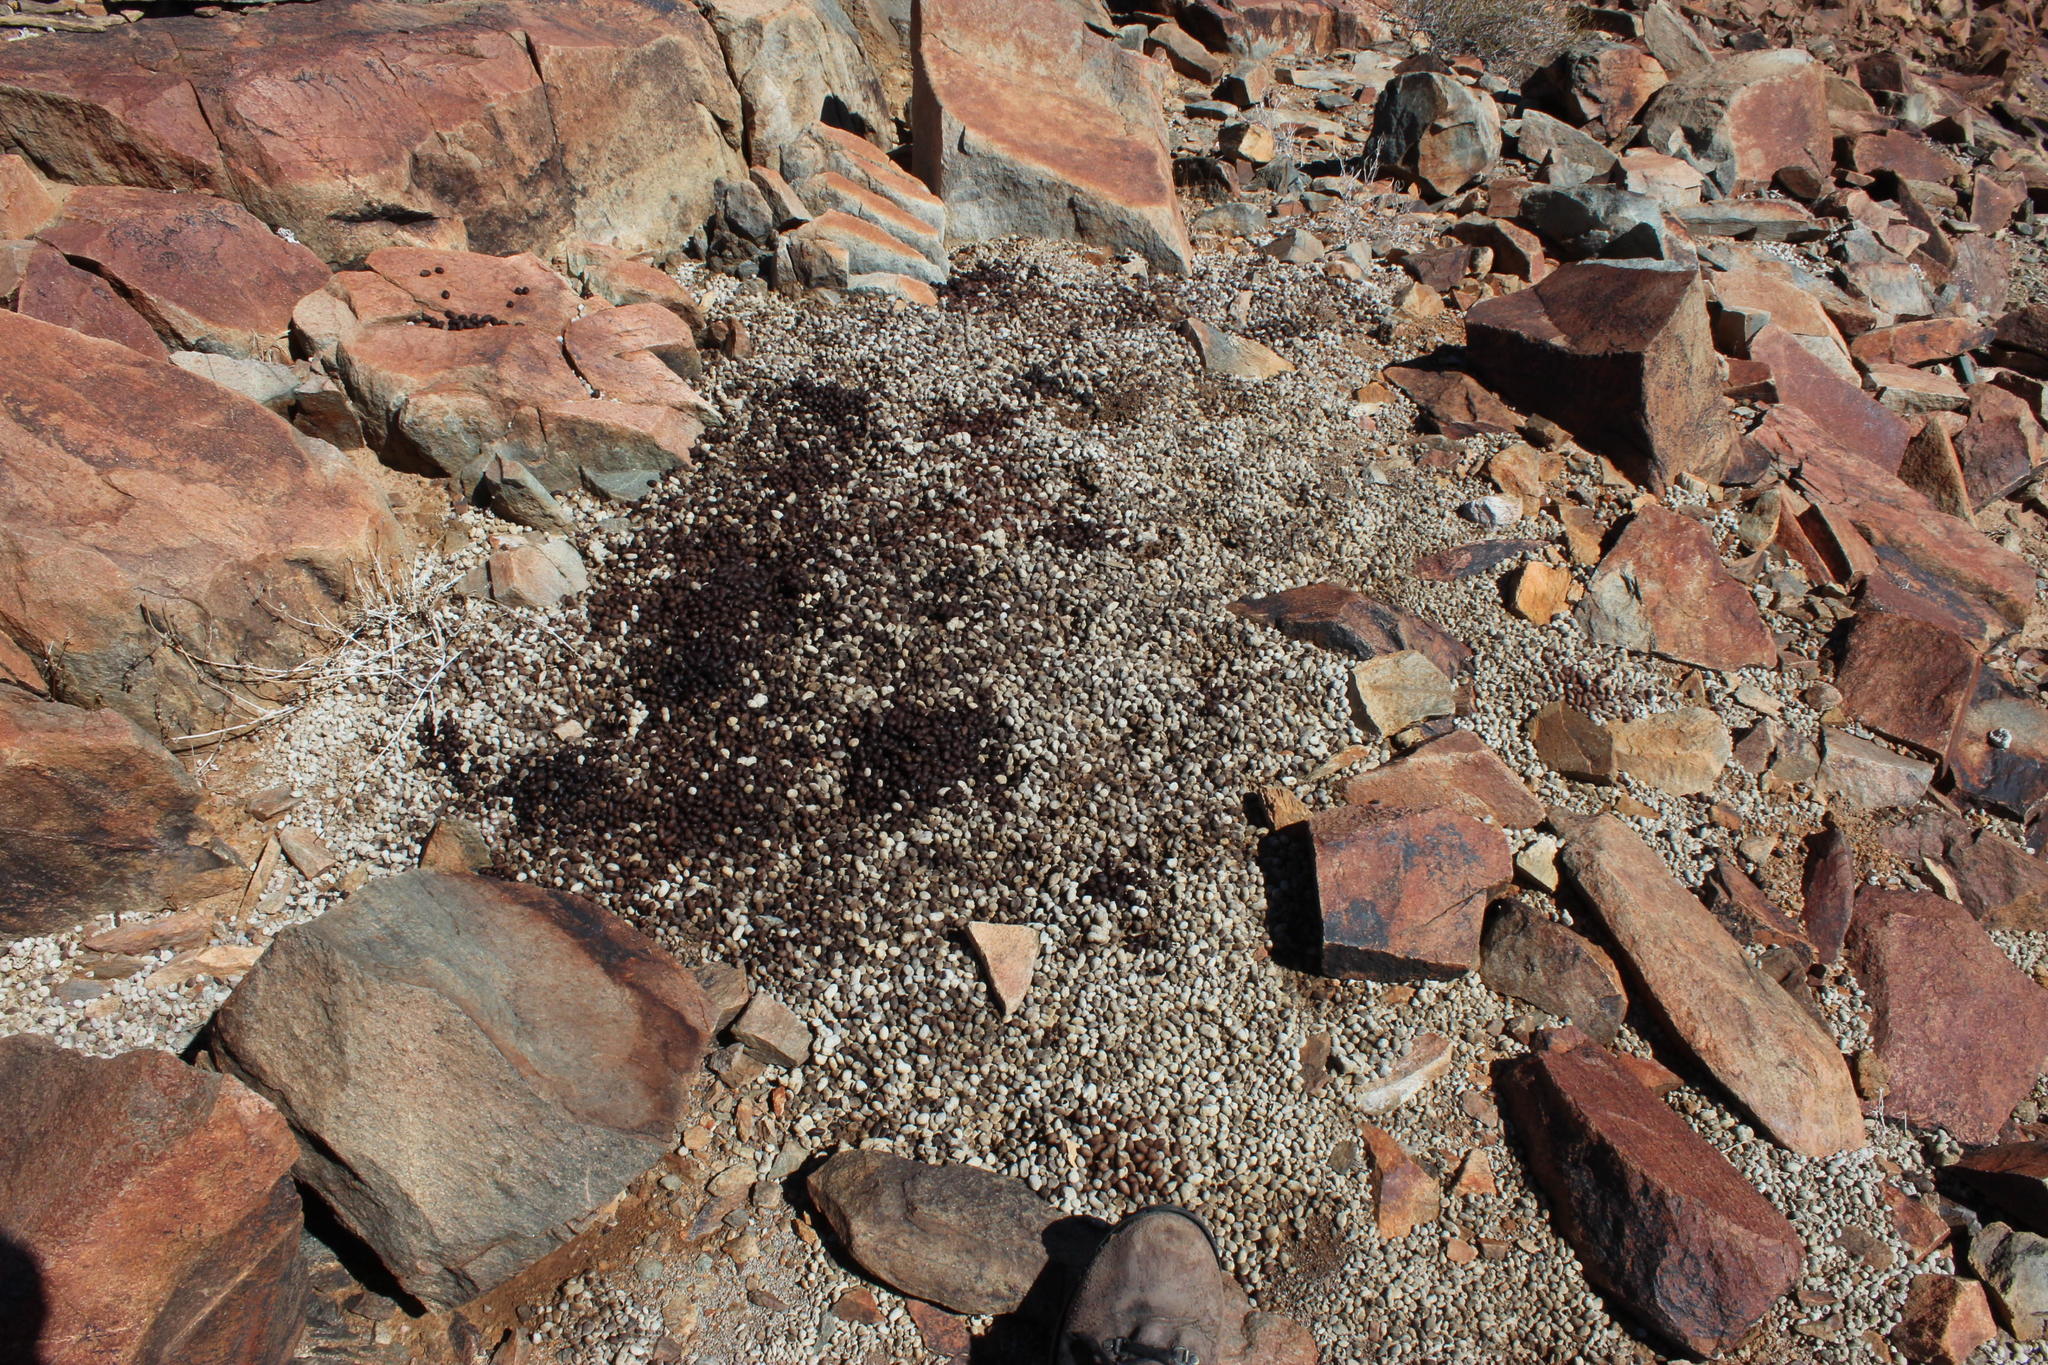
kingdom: Animalia
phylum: Chordata
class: Mammalia
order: Artiodactyla
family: Bovidae
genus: Oreotragus
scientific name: Oreotragus oreotragus
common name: Klipspringer
